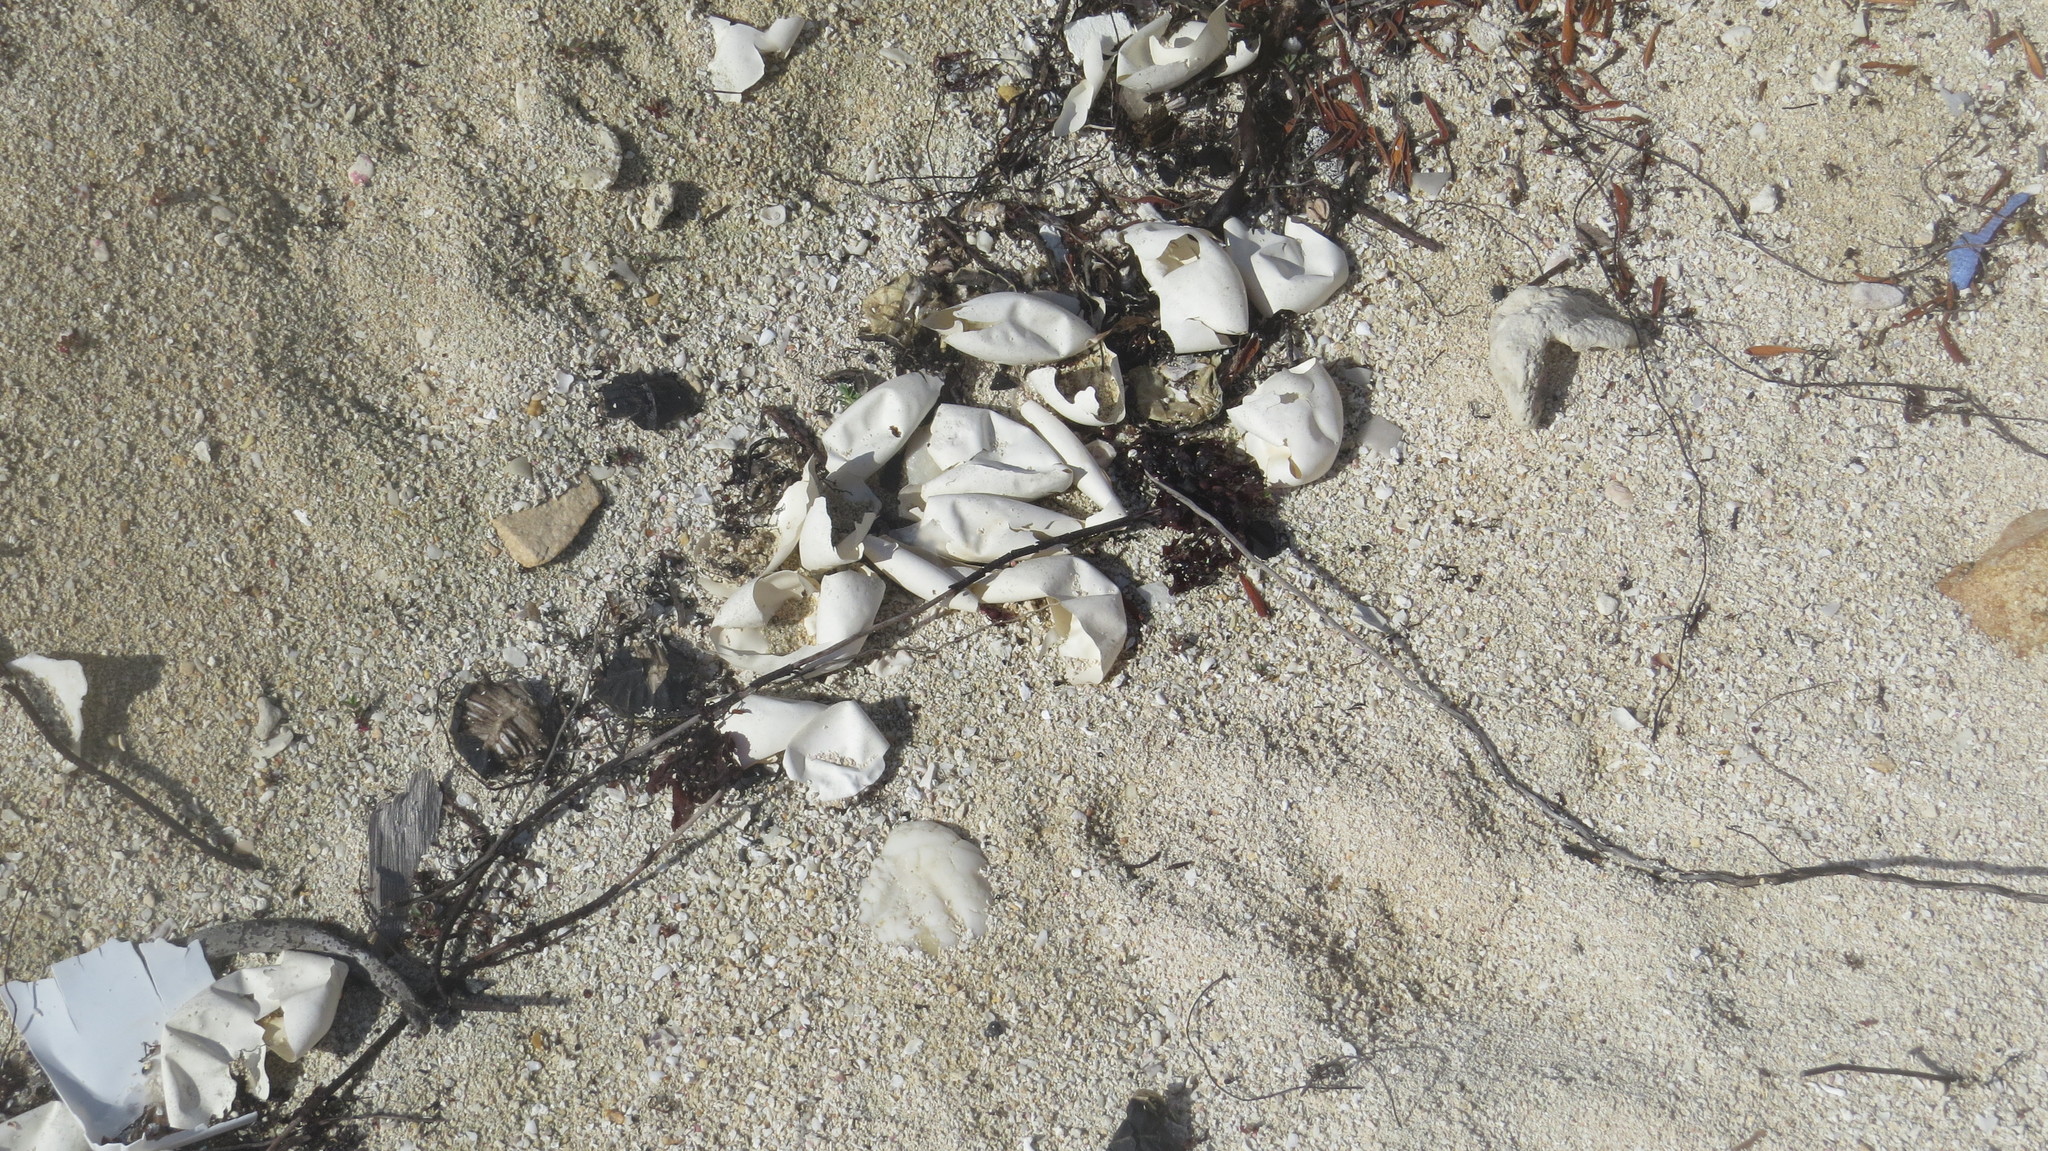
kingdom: Animalia
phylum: Chordata
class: Testudines
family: Cheloniidae
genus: Chelonia
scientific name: Chelonia mydas
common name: Green turtle
